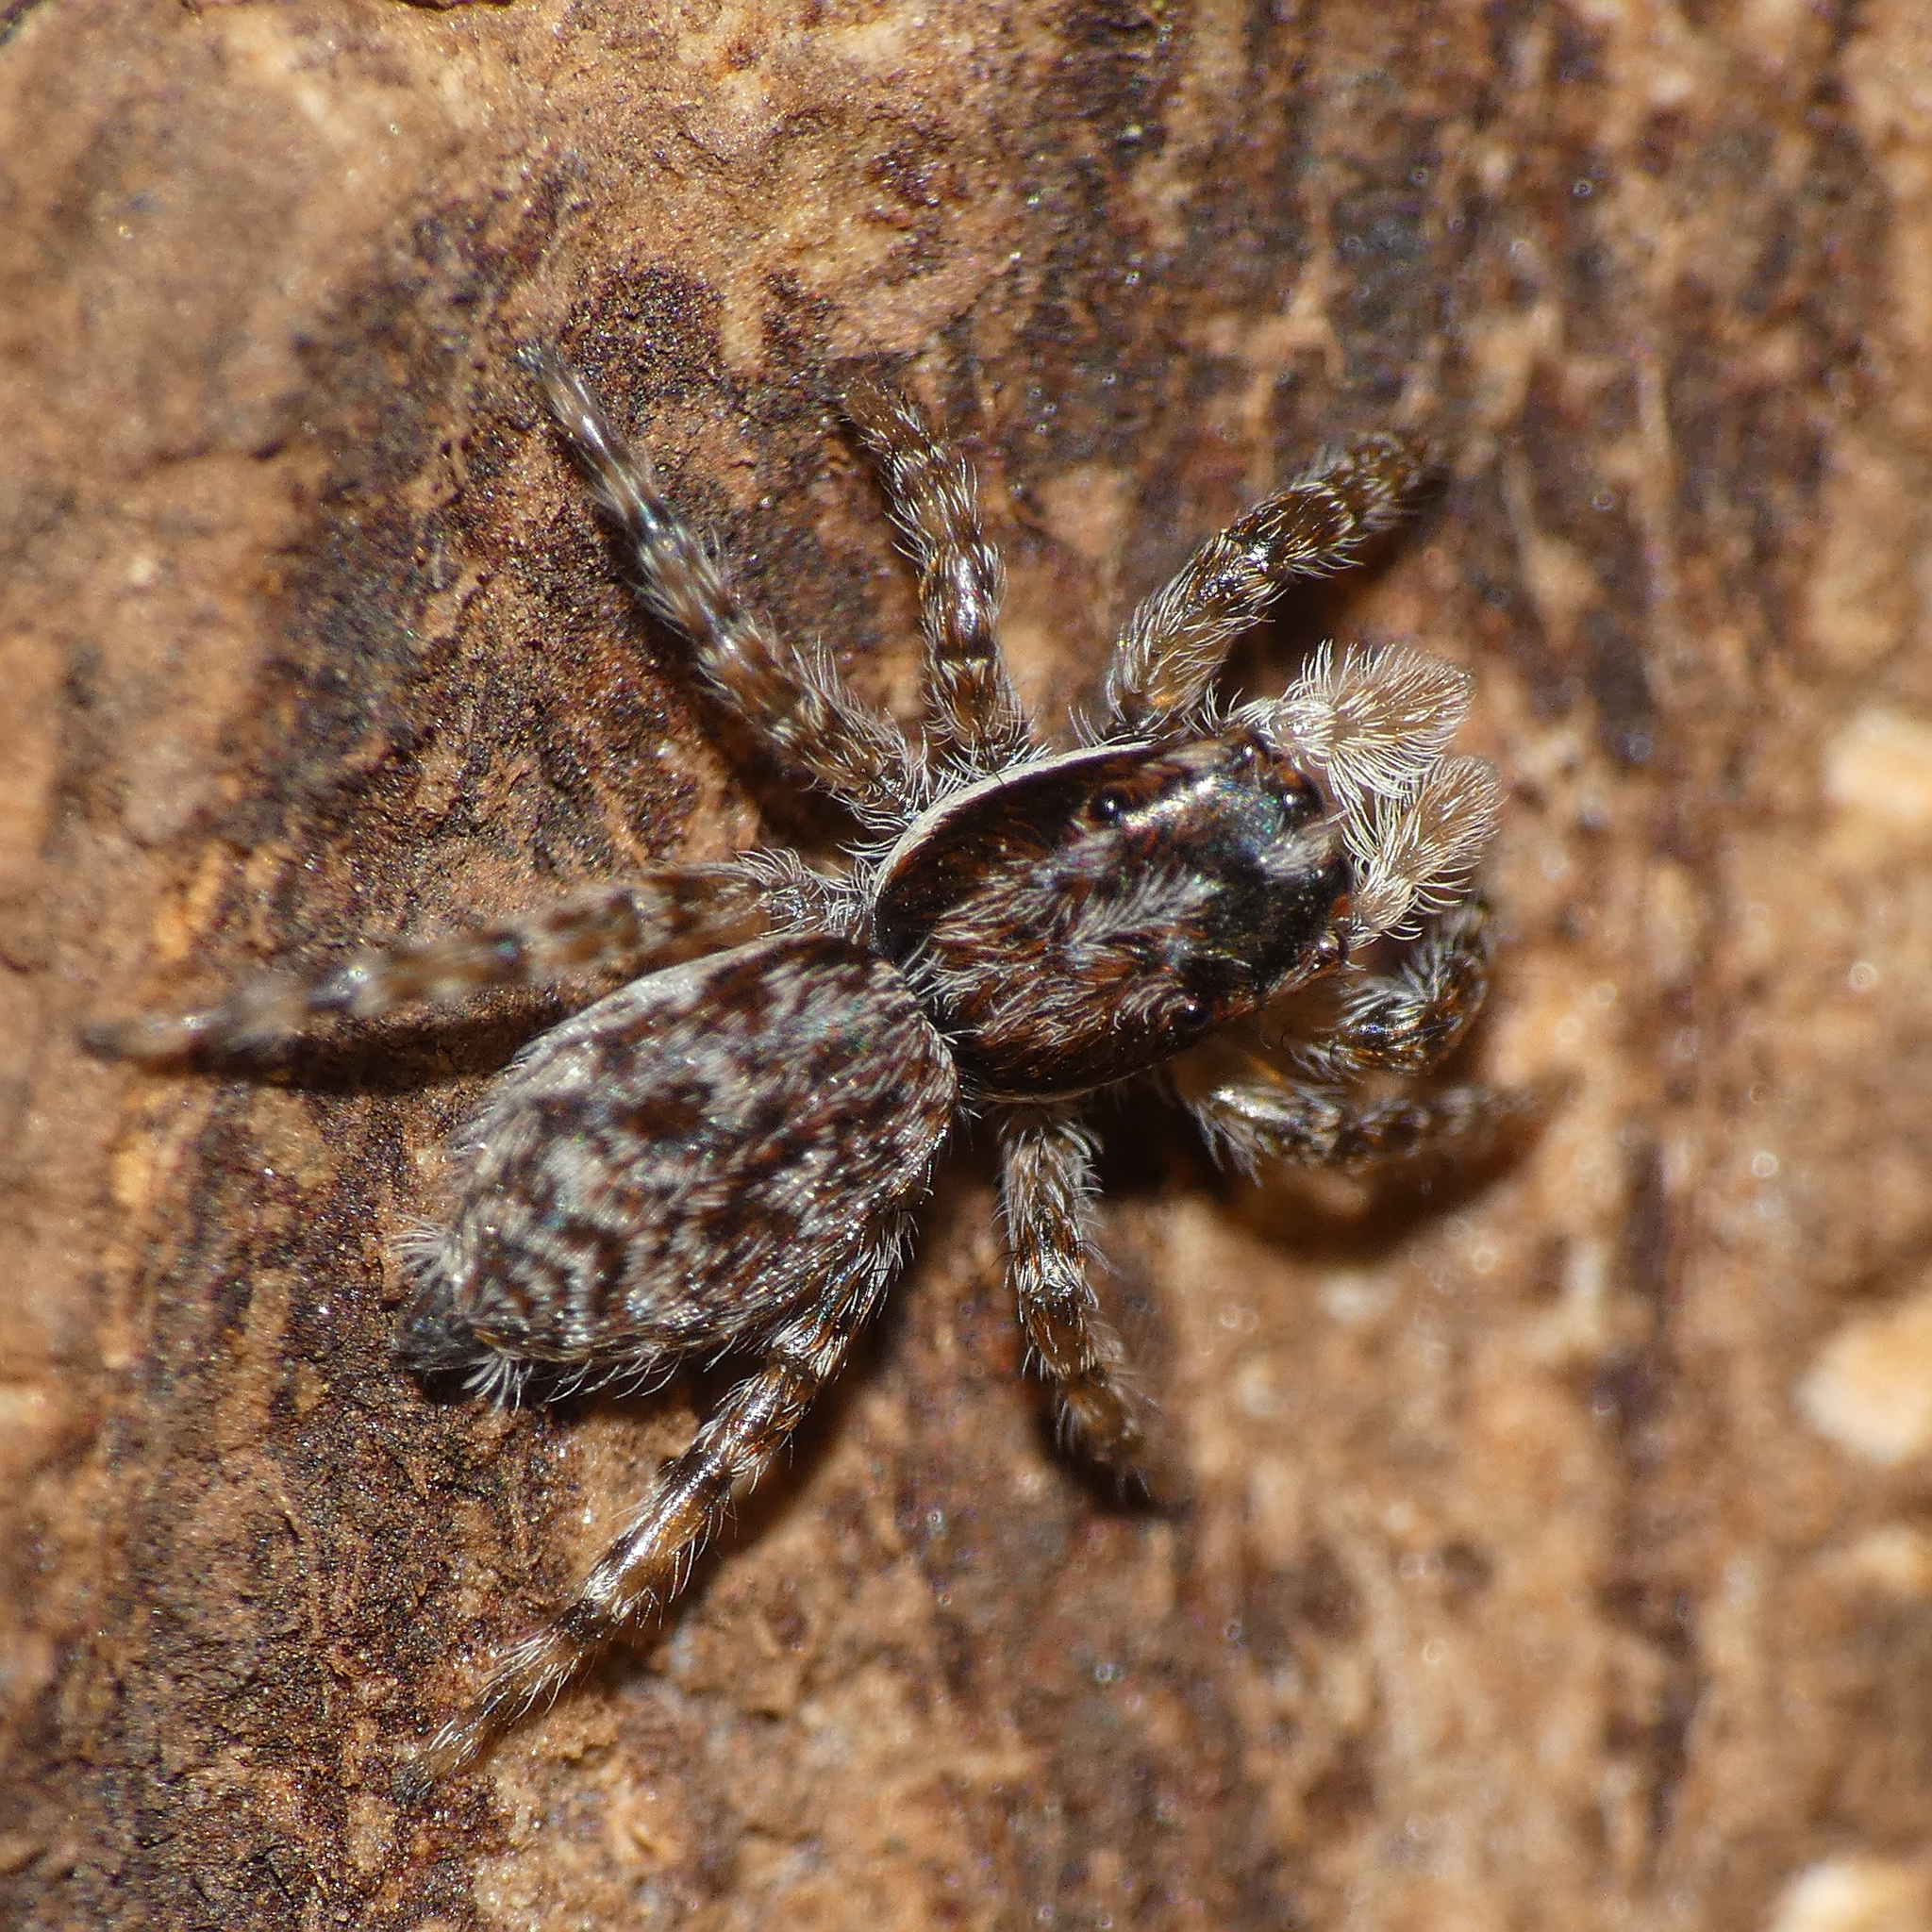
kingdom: Animalia
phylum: Arthropoda
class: Arachnida
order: Araneae
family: Salticidae
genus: Menemerus
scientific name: Menemerus bifurcus
